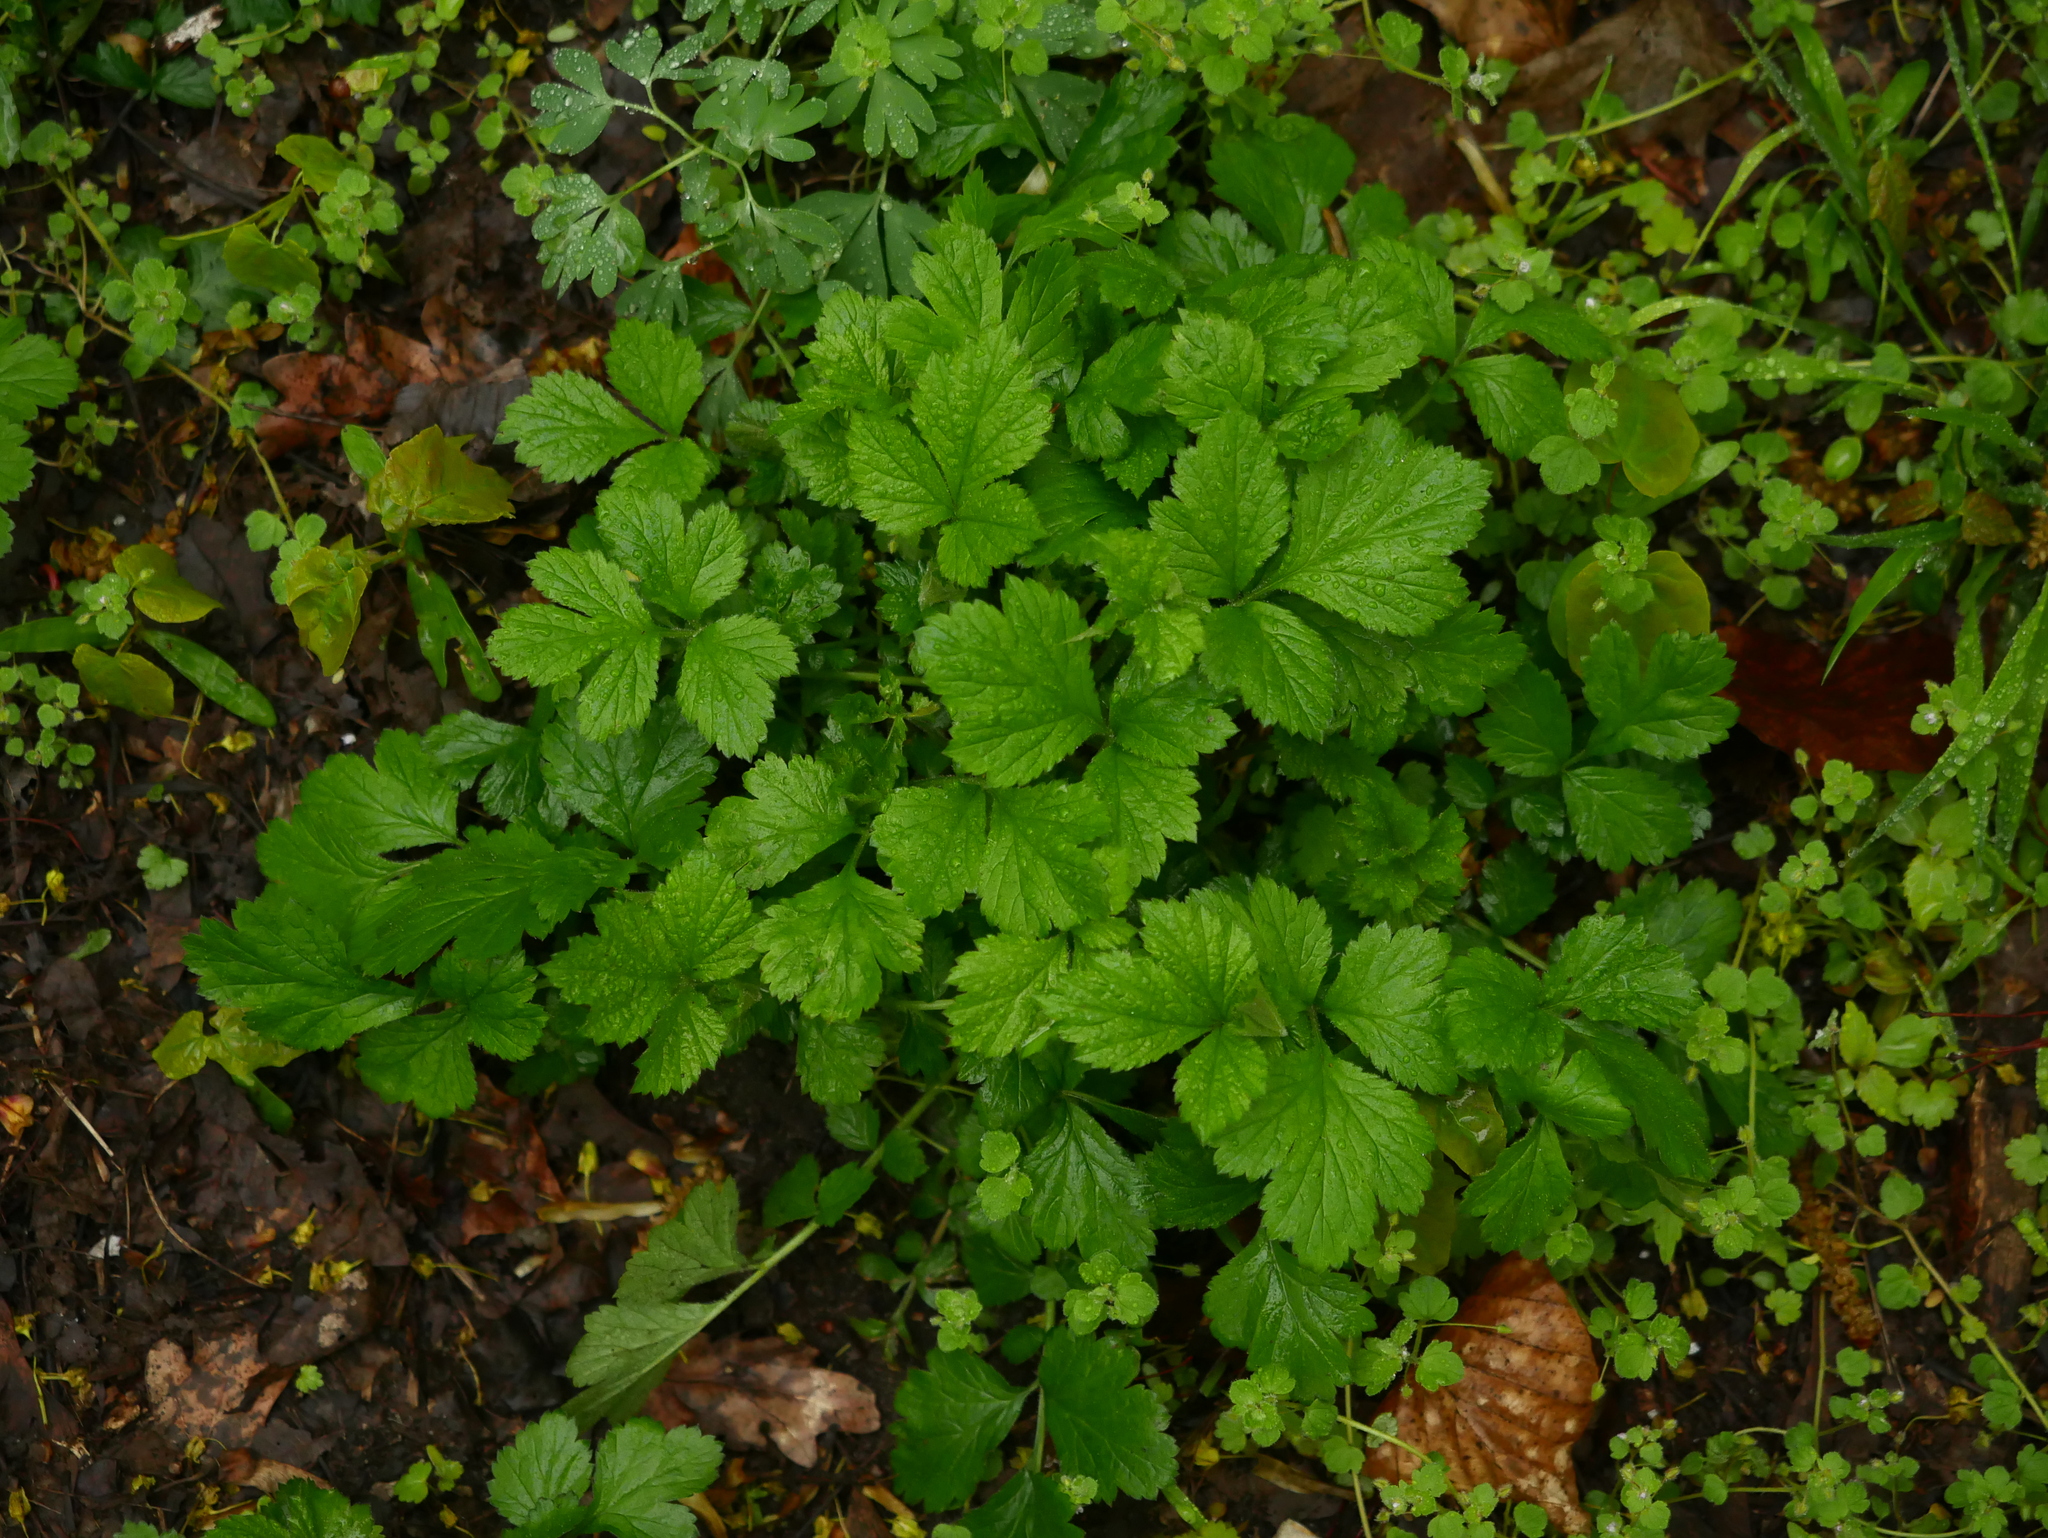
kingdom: Plantae
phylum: Tracheophyta
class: Magnoliopsida
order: Rosales
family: Rosaceae
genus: Geum
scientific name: Geum urbanum
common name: Wood avens
